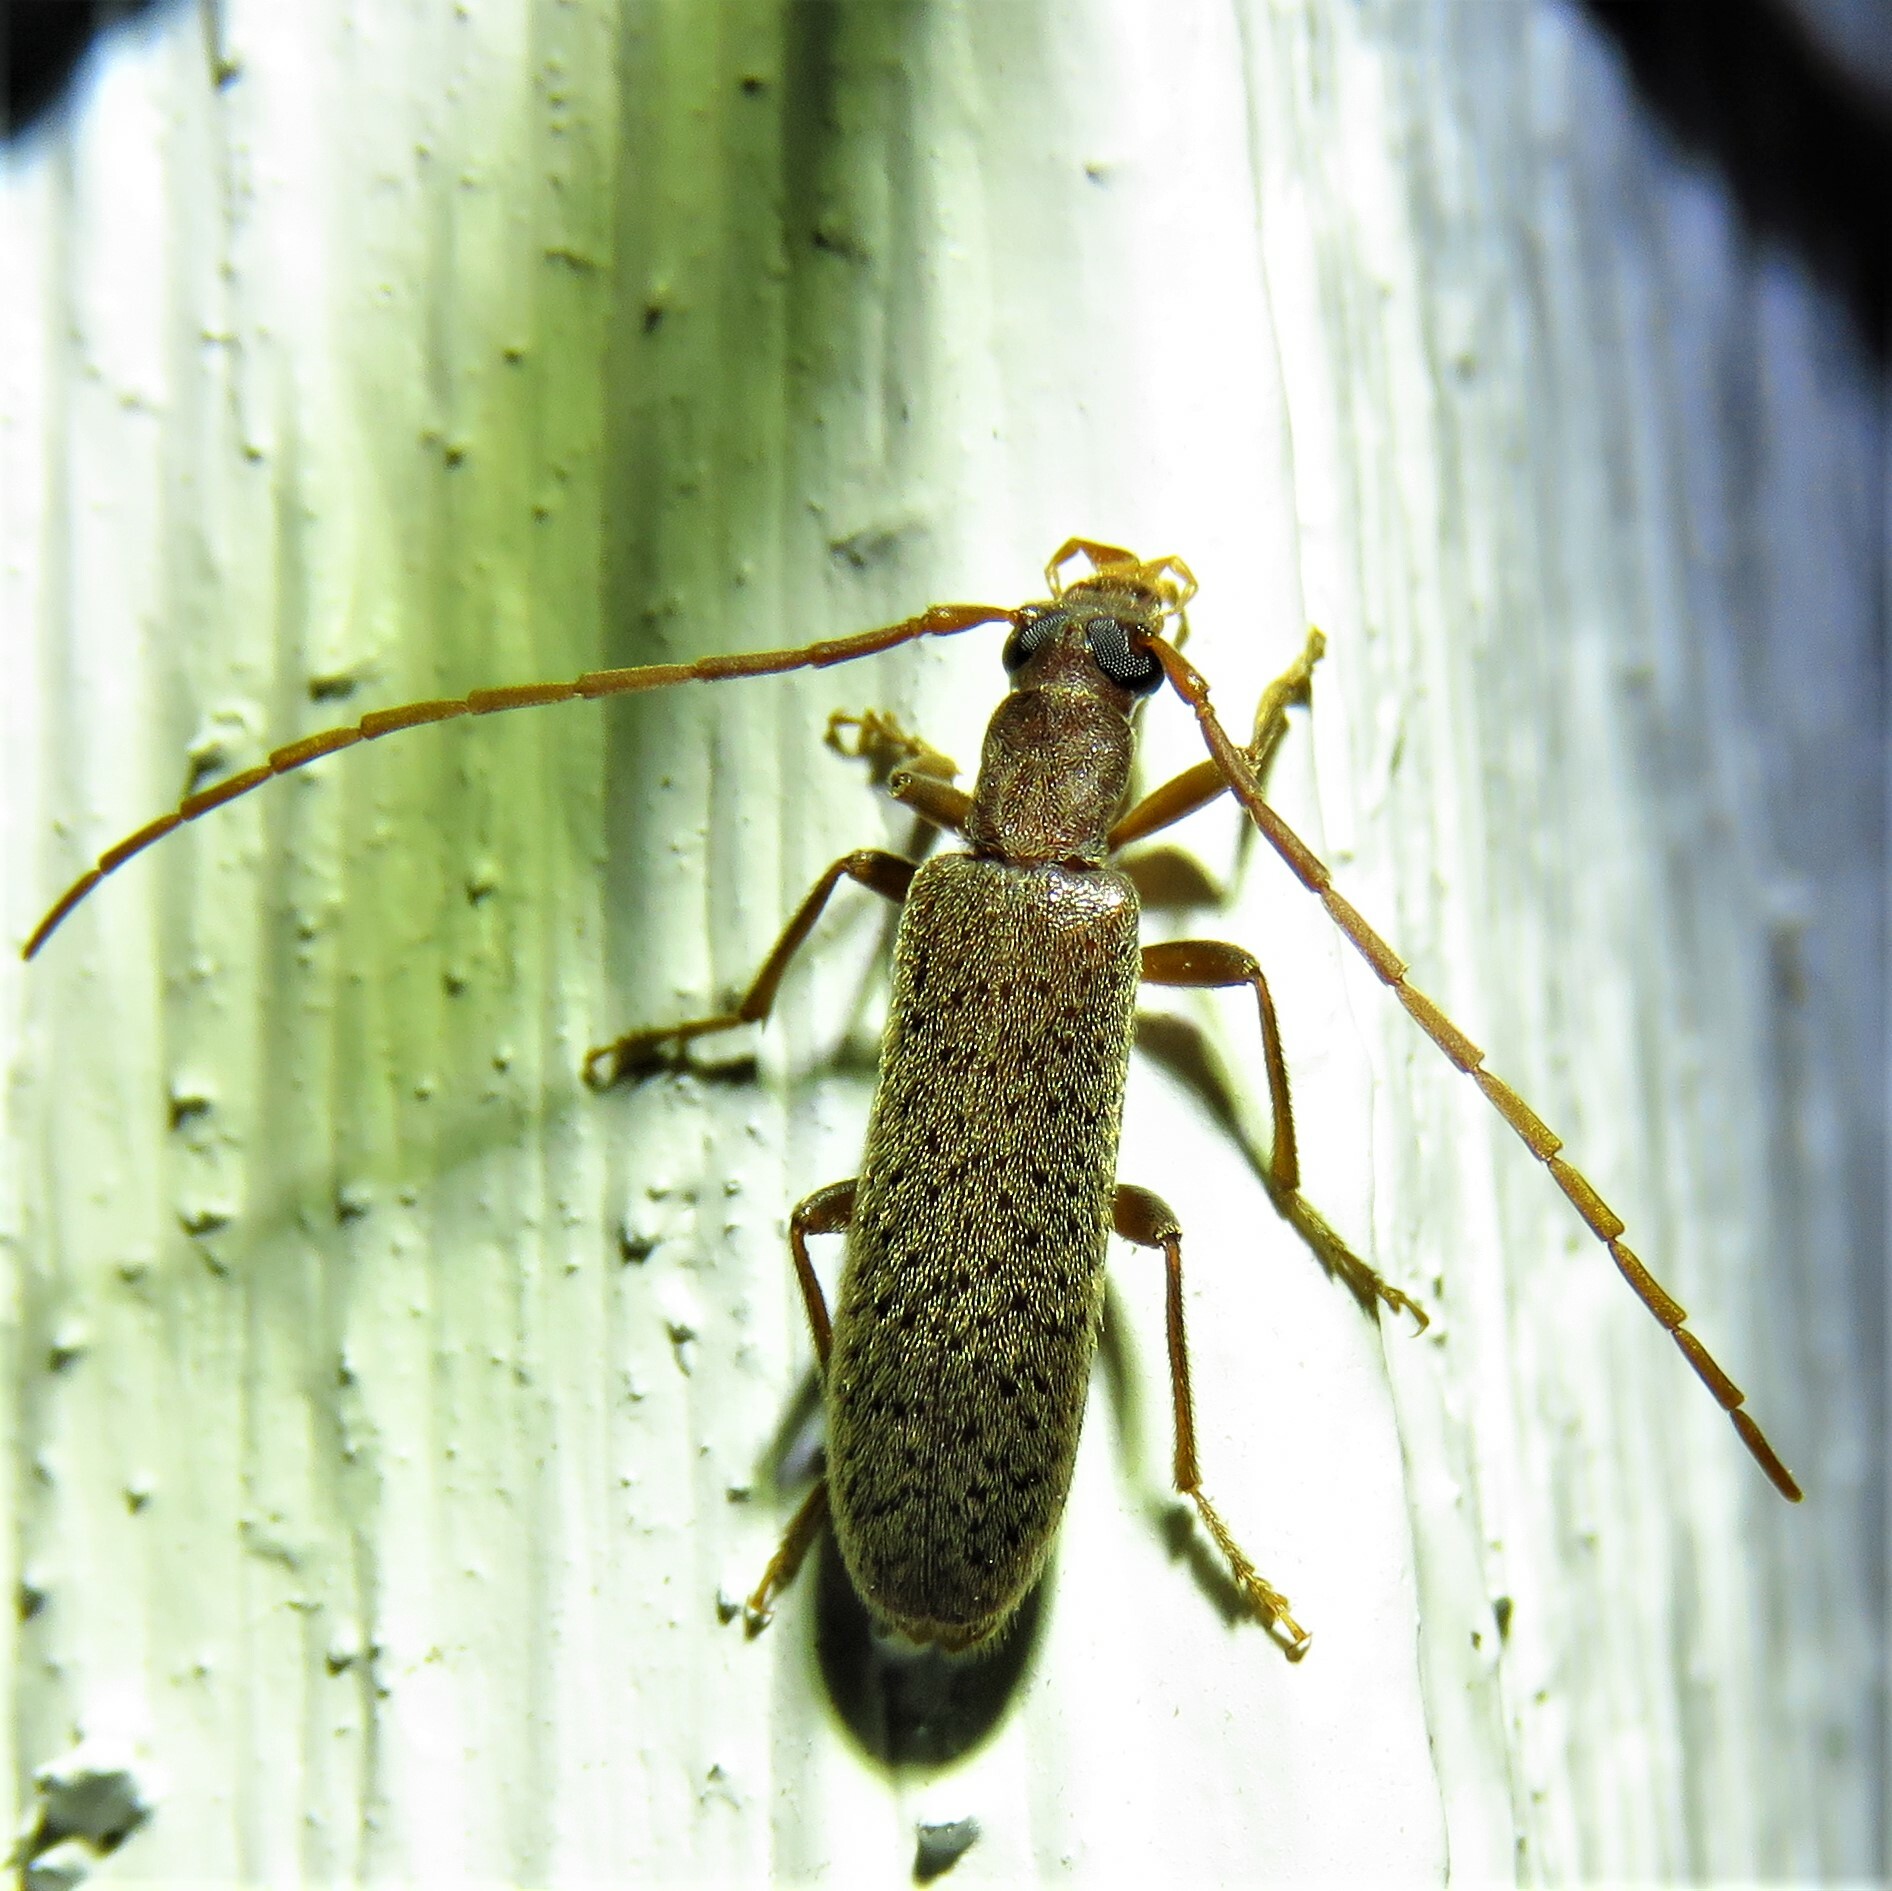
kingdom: Animalia
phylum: Arthropoda
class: Insecta
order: Coleoptera
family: Oedemeridae
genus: Sparedrus
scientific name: Sparedrus aspersus
